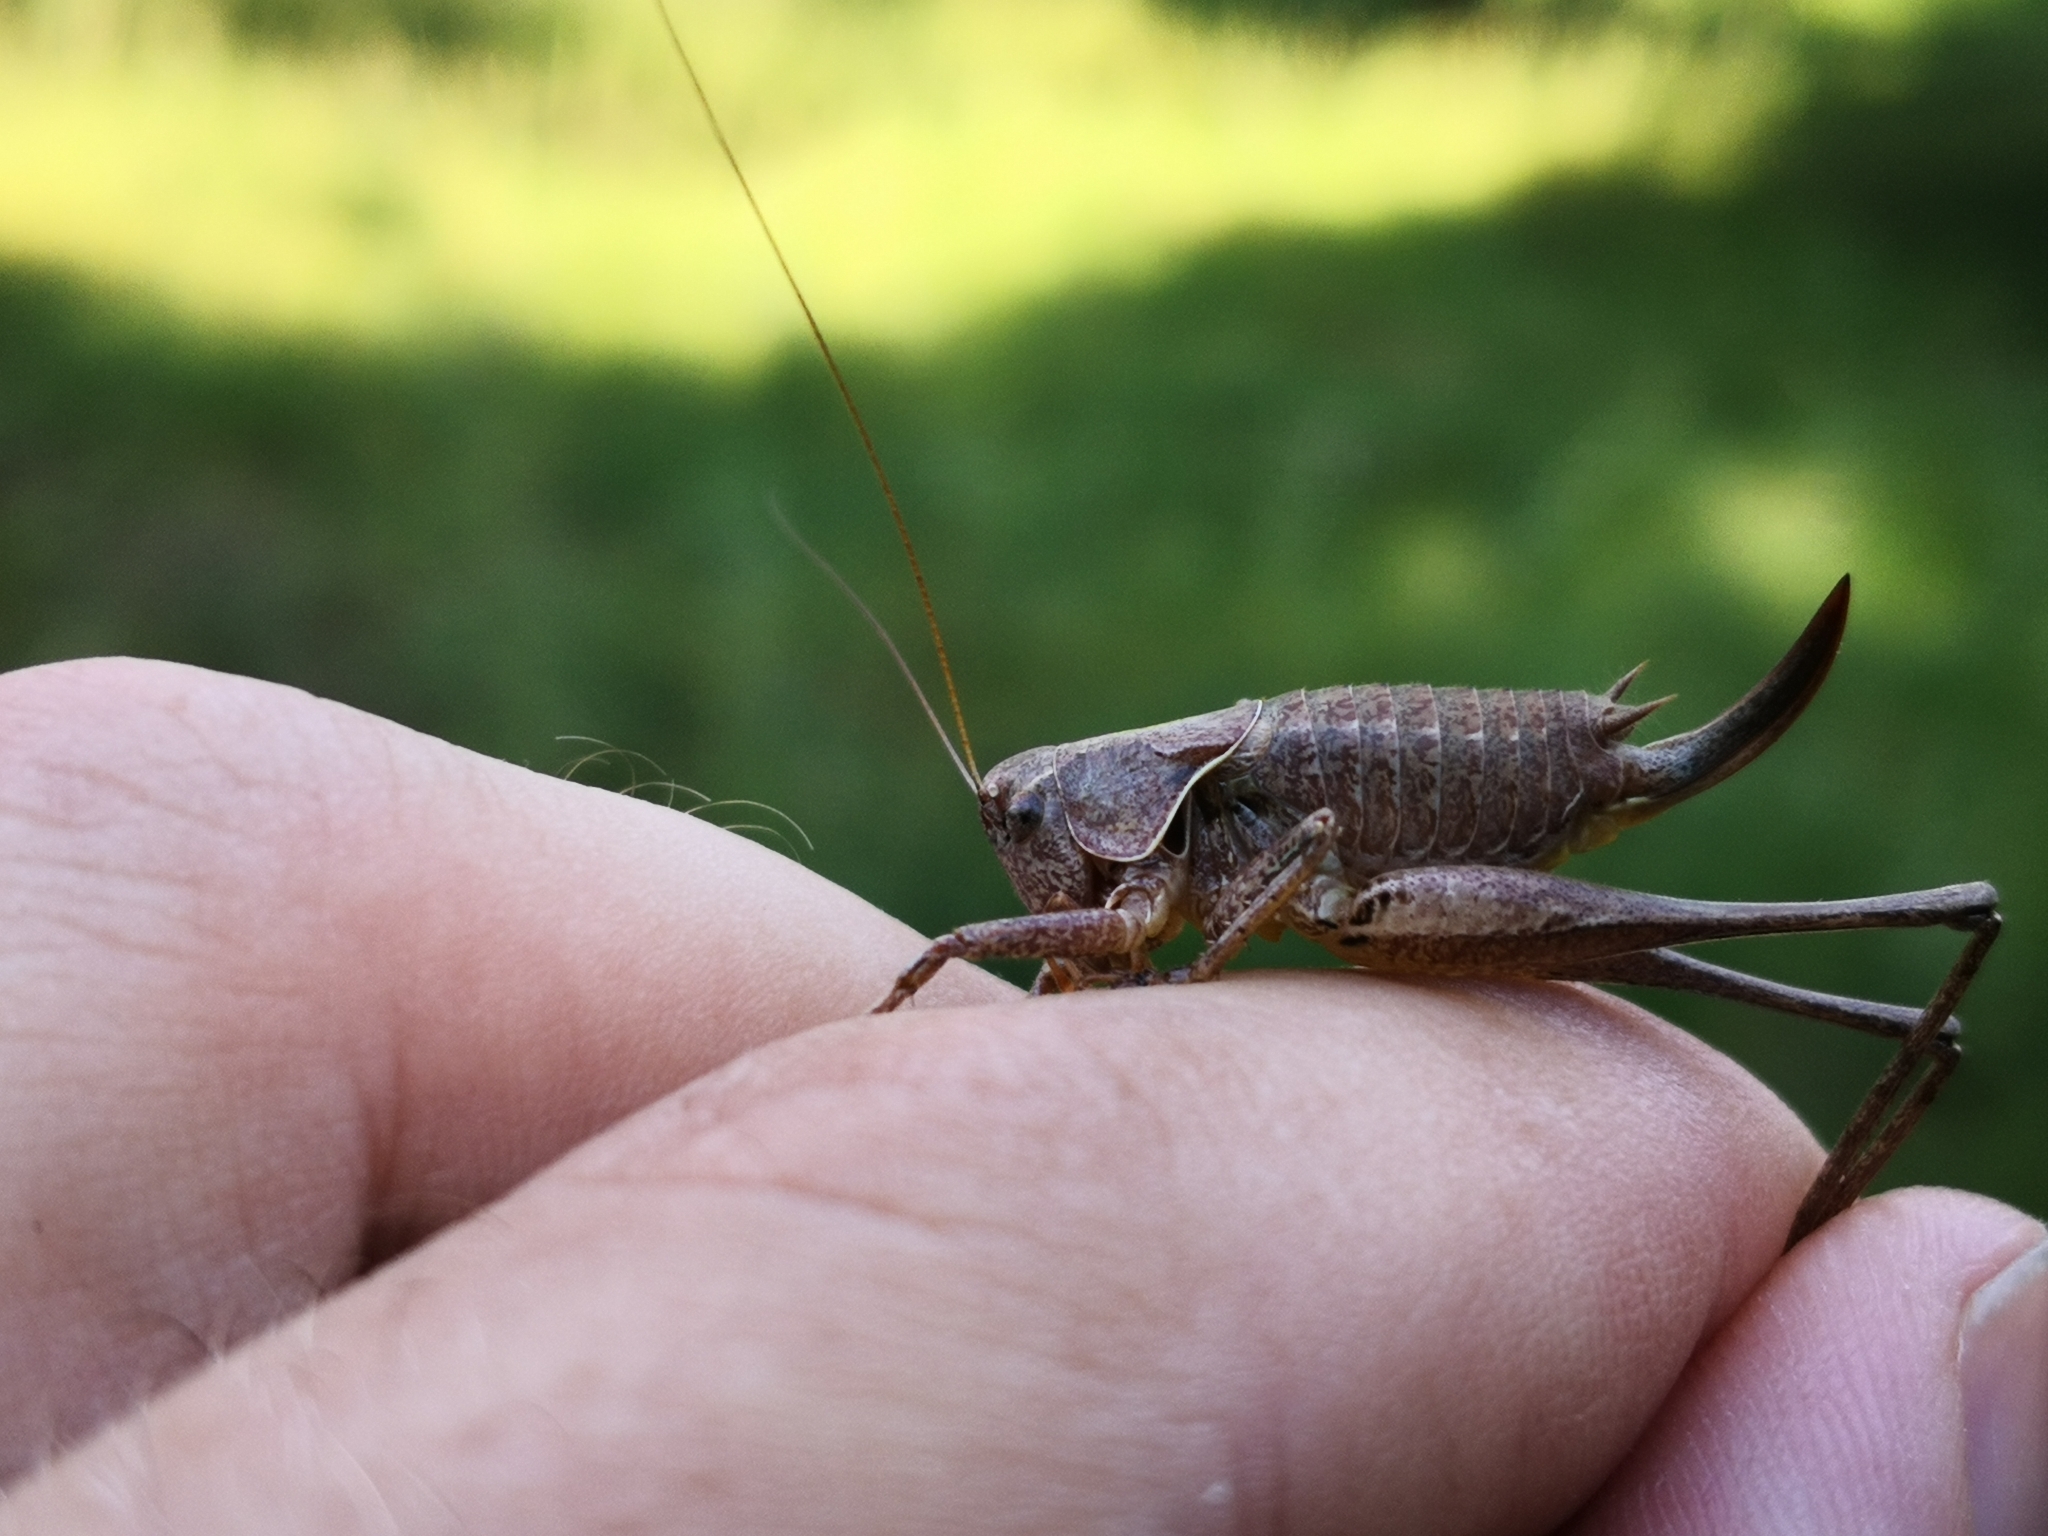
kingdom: Animalia
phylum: Arthropoda
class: Insecta
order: Orthoptera
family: Tettigoniidae
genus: Pholidoptera
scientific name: Pholidoptera griseoaptera
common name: Dark bush-cricket
